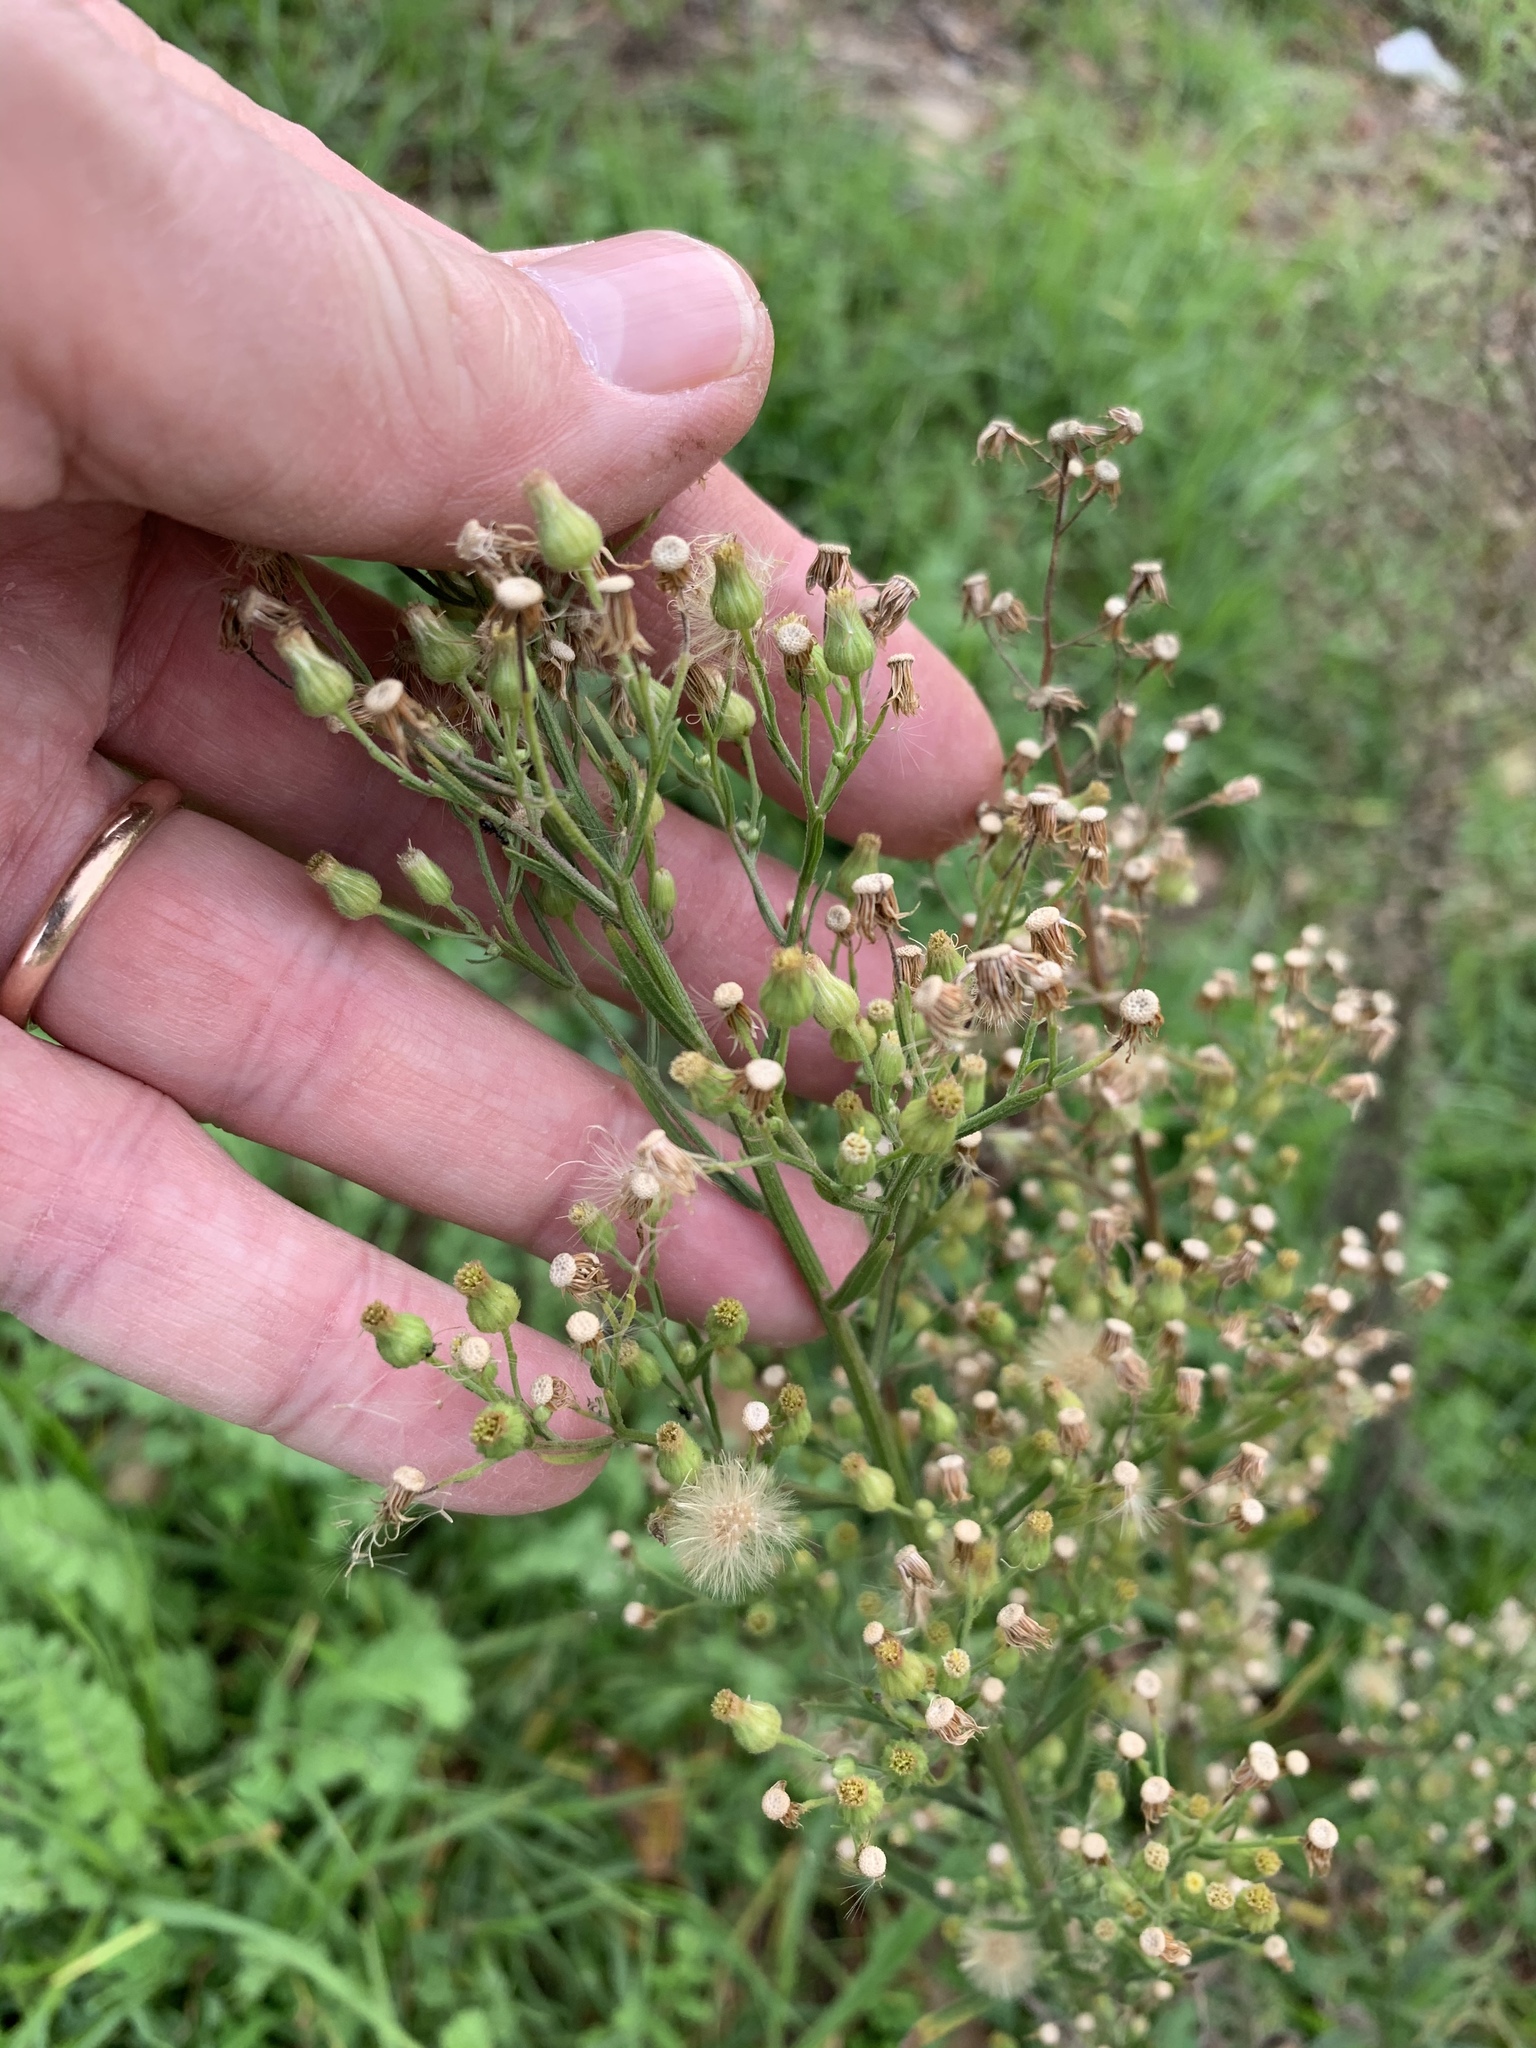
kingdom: Plantae
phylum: Tracheophyta
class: Magnoliopsida
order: Asterales
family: Asteraceae
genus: Erigeron
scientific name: Erigeron sumatrensis
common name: Daisy
